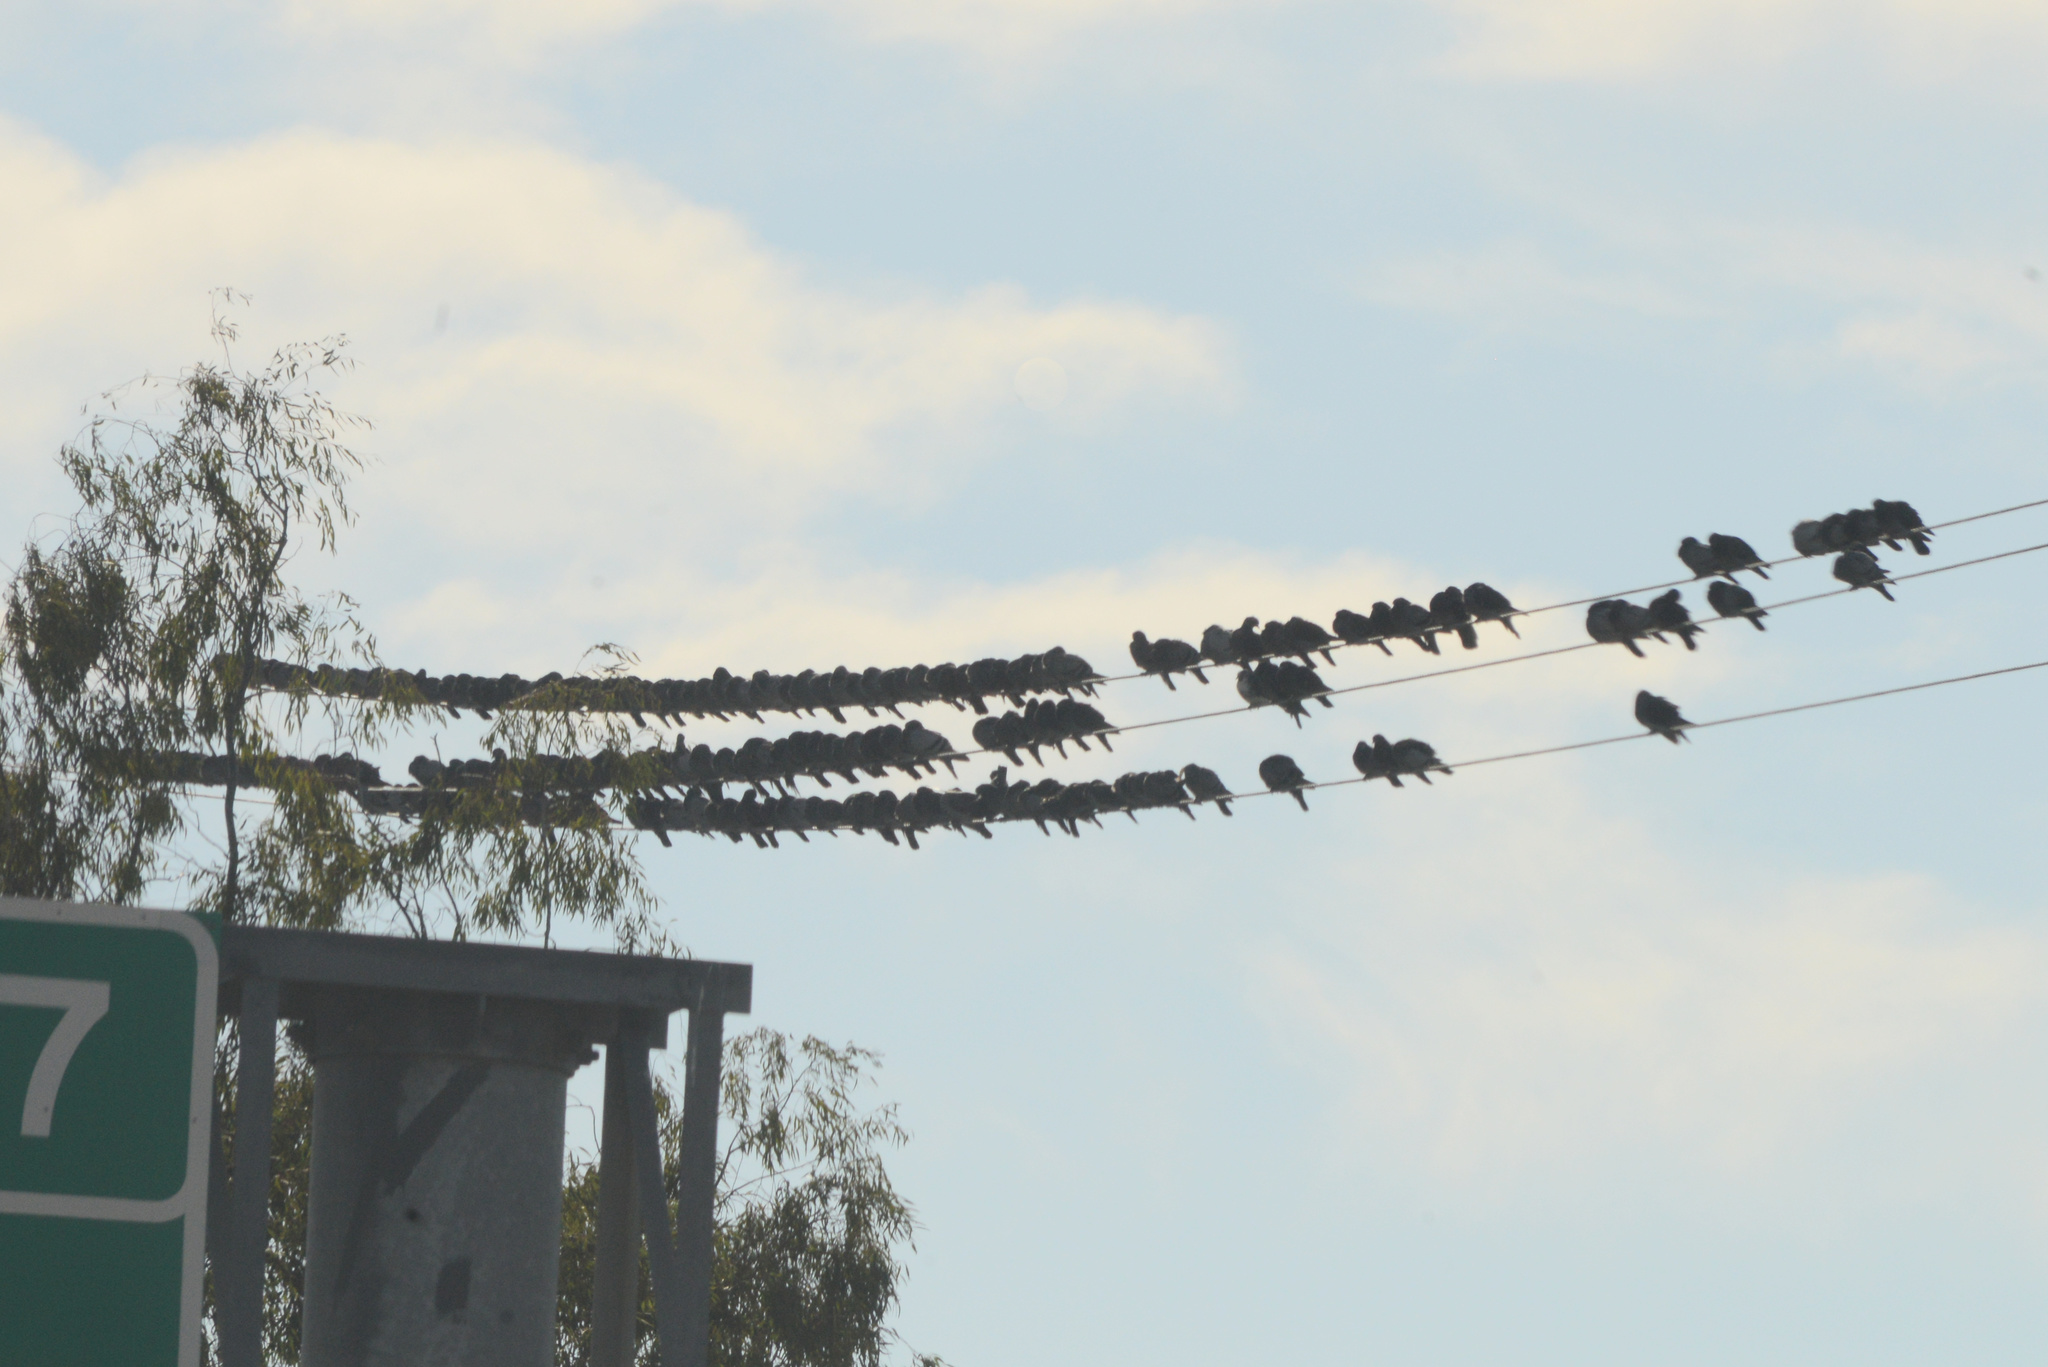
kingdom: Animalia
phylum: Chordata
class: Aves
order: Columbiformes
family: Columbidae
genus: Columba
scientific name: Columba livia
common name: Rock pigeon
